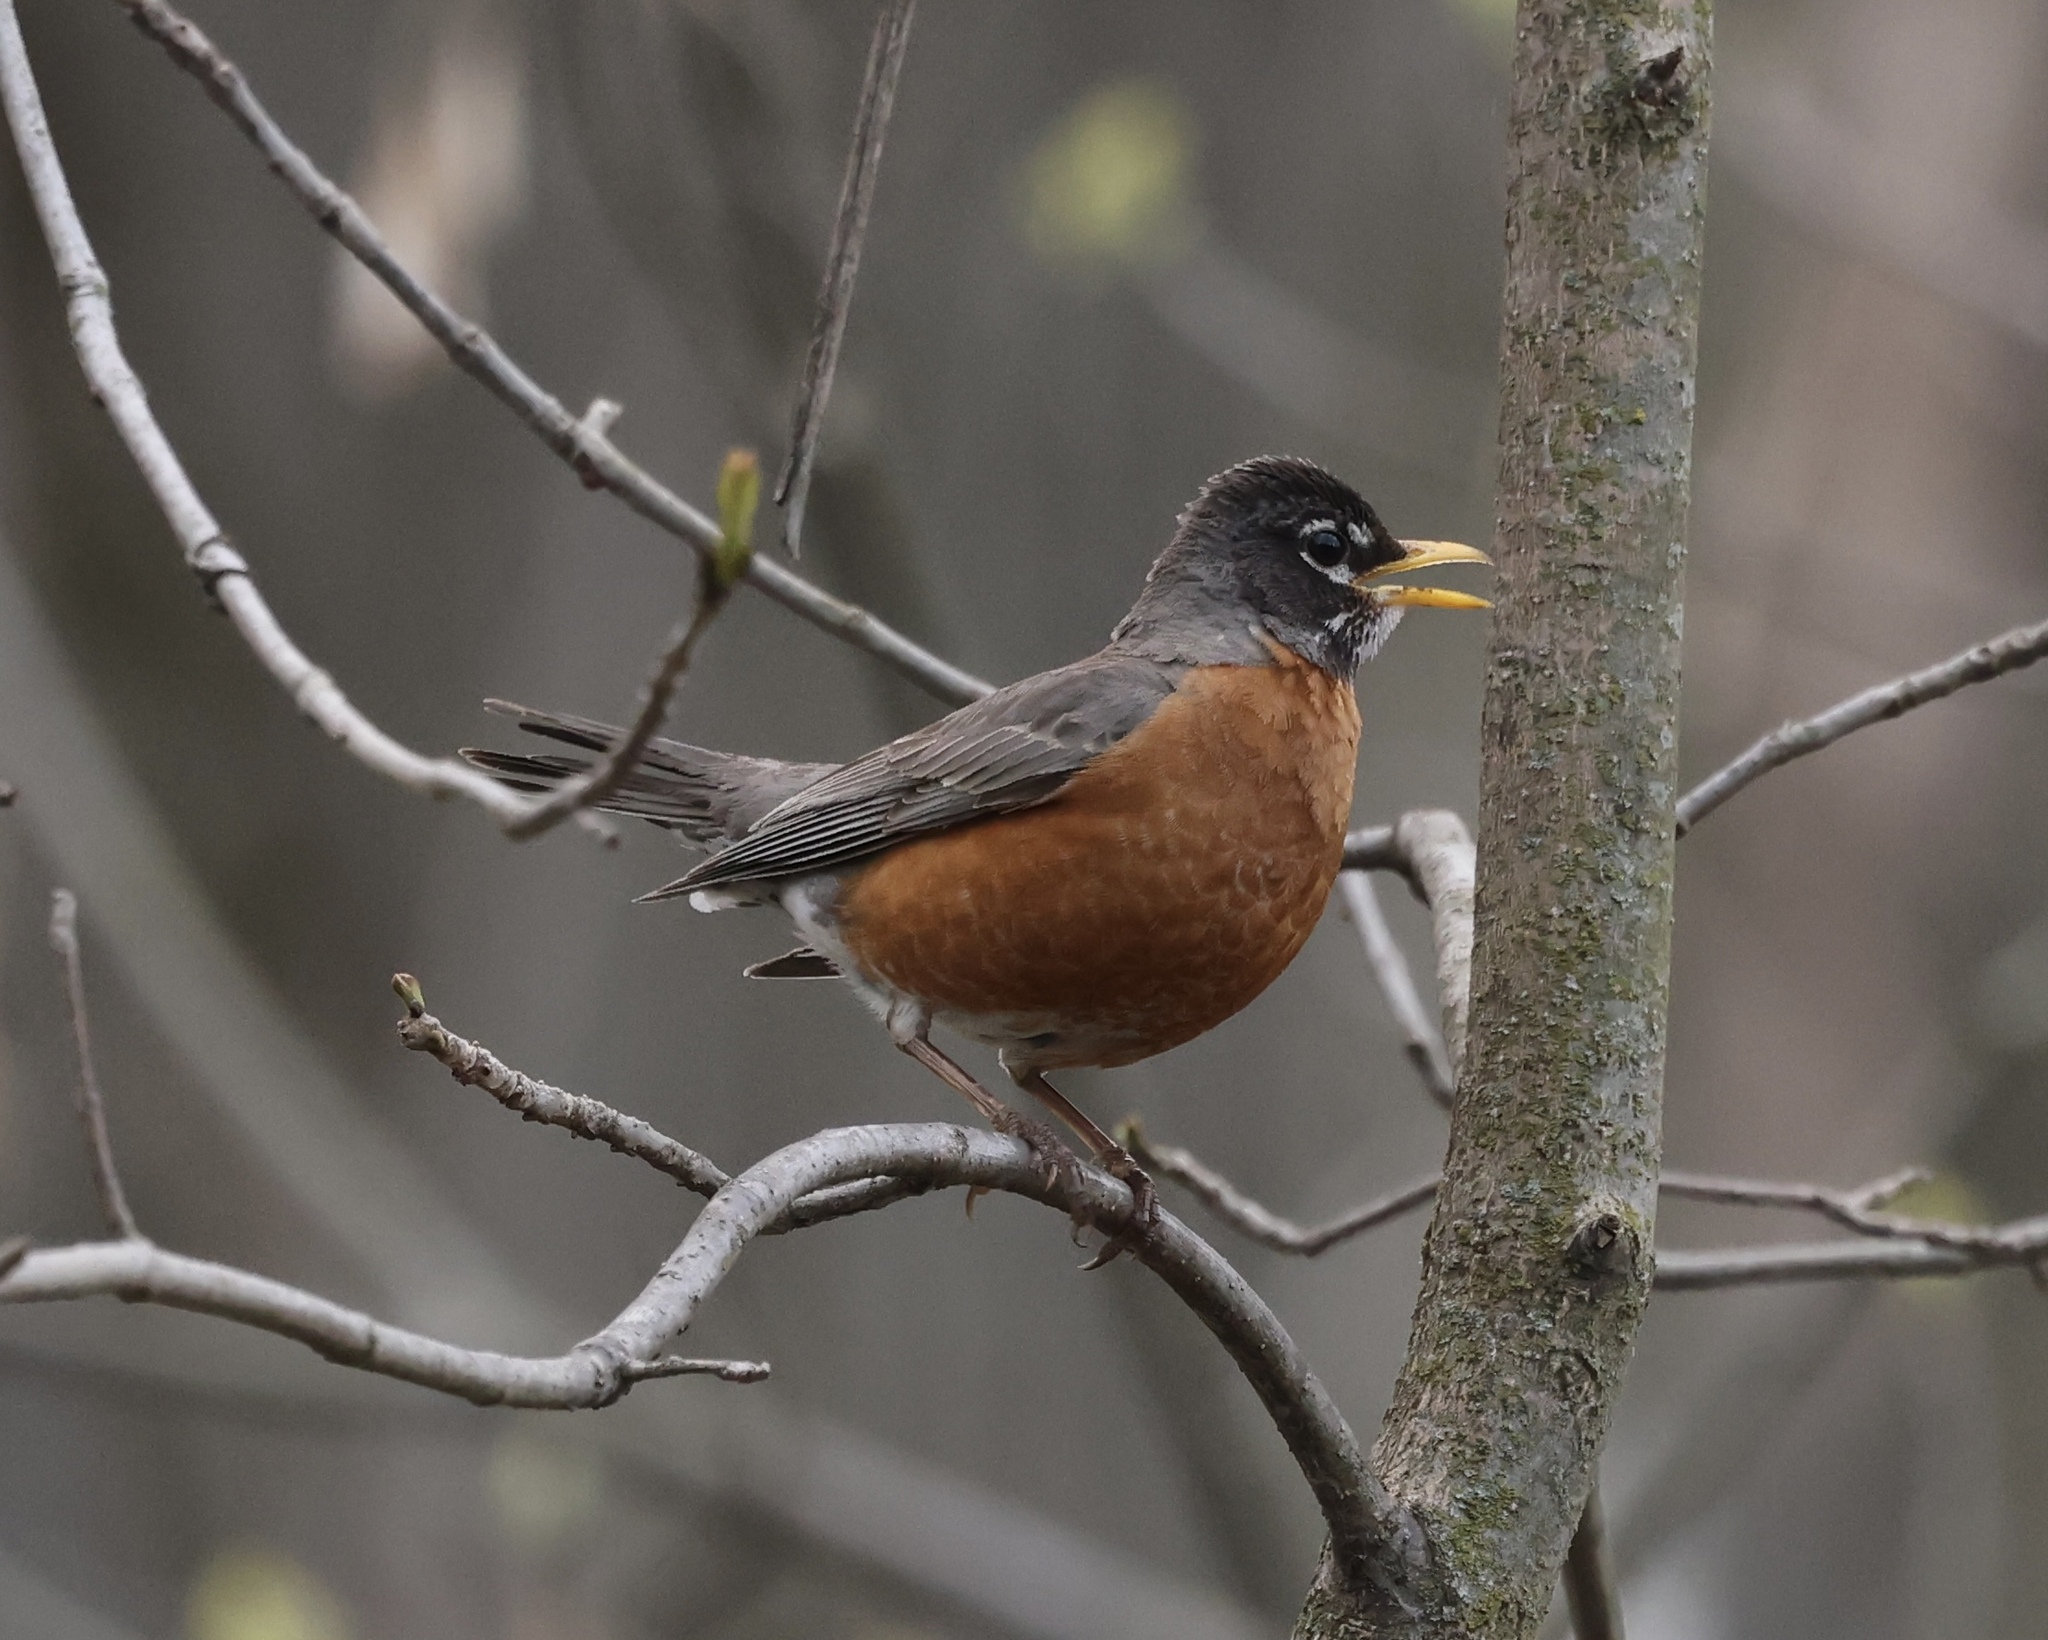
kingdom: Animalia
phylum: Chordata
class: Aves
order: Passeriformes
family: Turdidae
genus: Turdus
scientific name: Turdus migratorius
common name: American robin
